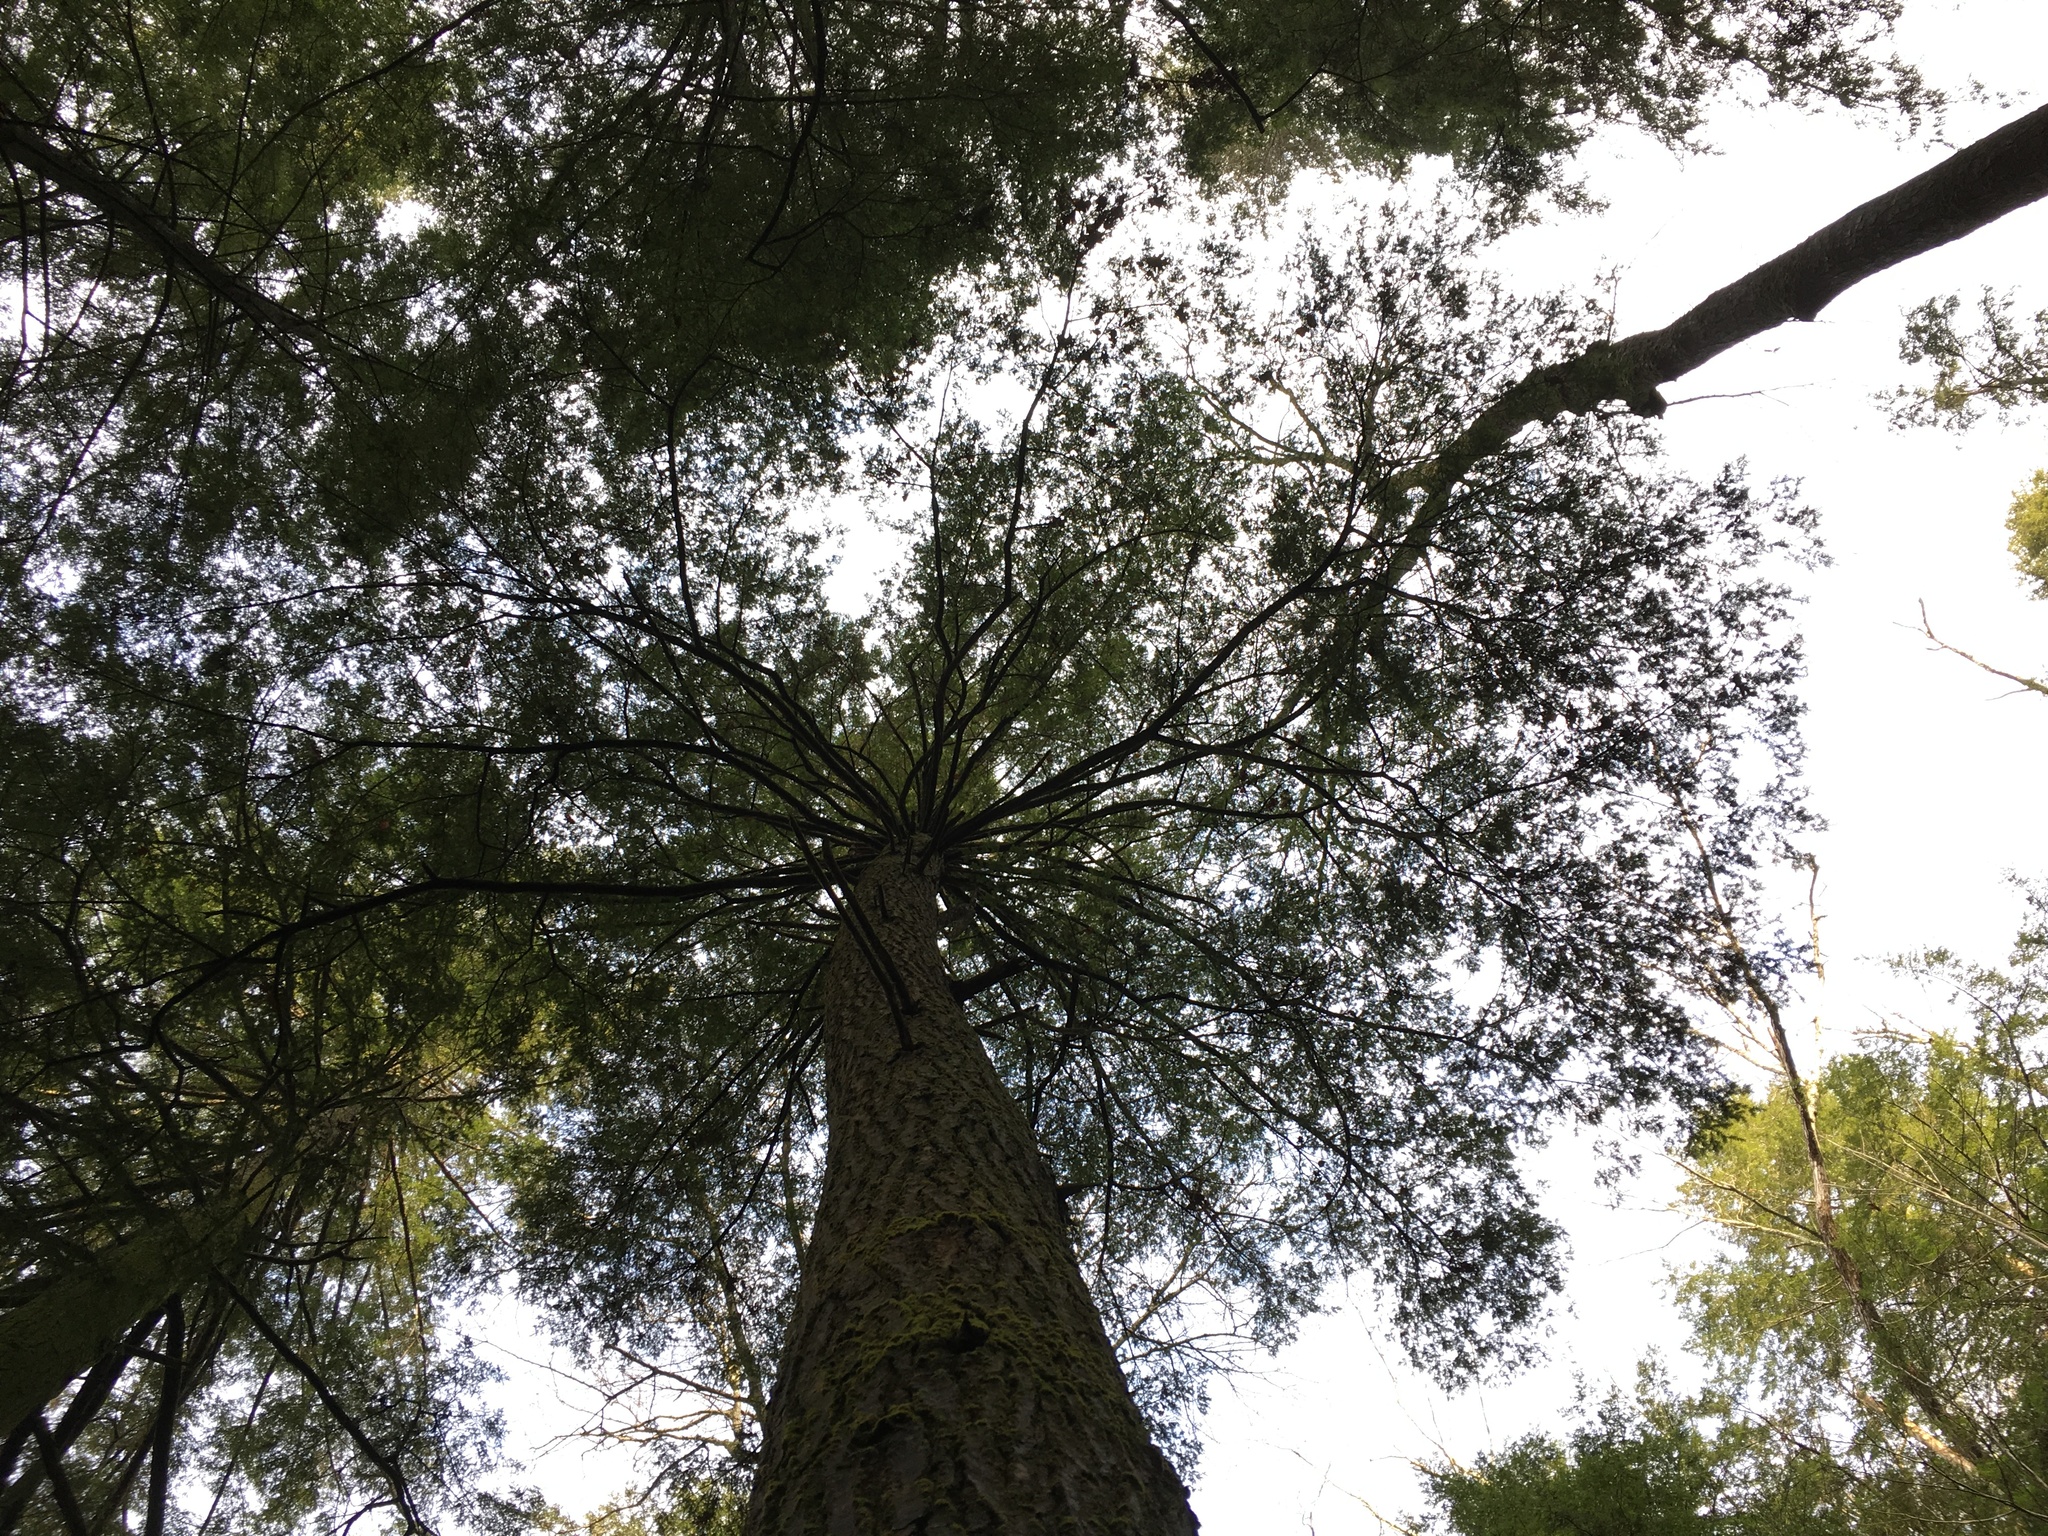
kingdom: Plantae
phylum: Tracheophyta
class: Pinopsida
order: Pinales
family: Pinaceae
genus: Tsuga
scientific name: Tsuga canadensis
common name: Eastern hemlock
